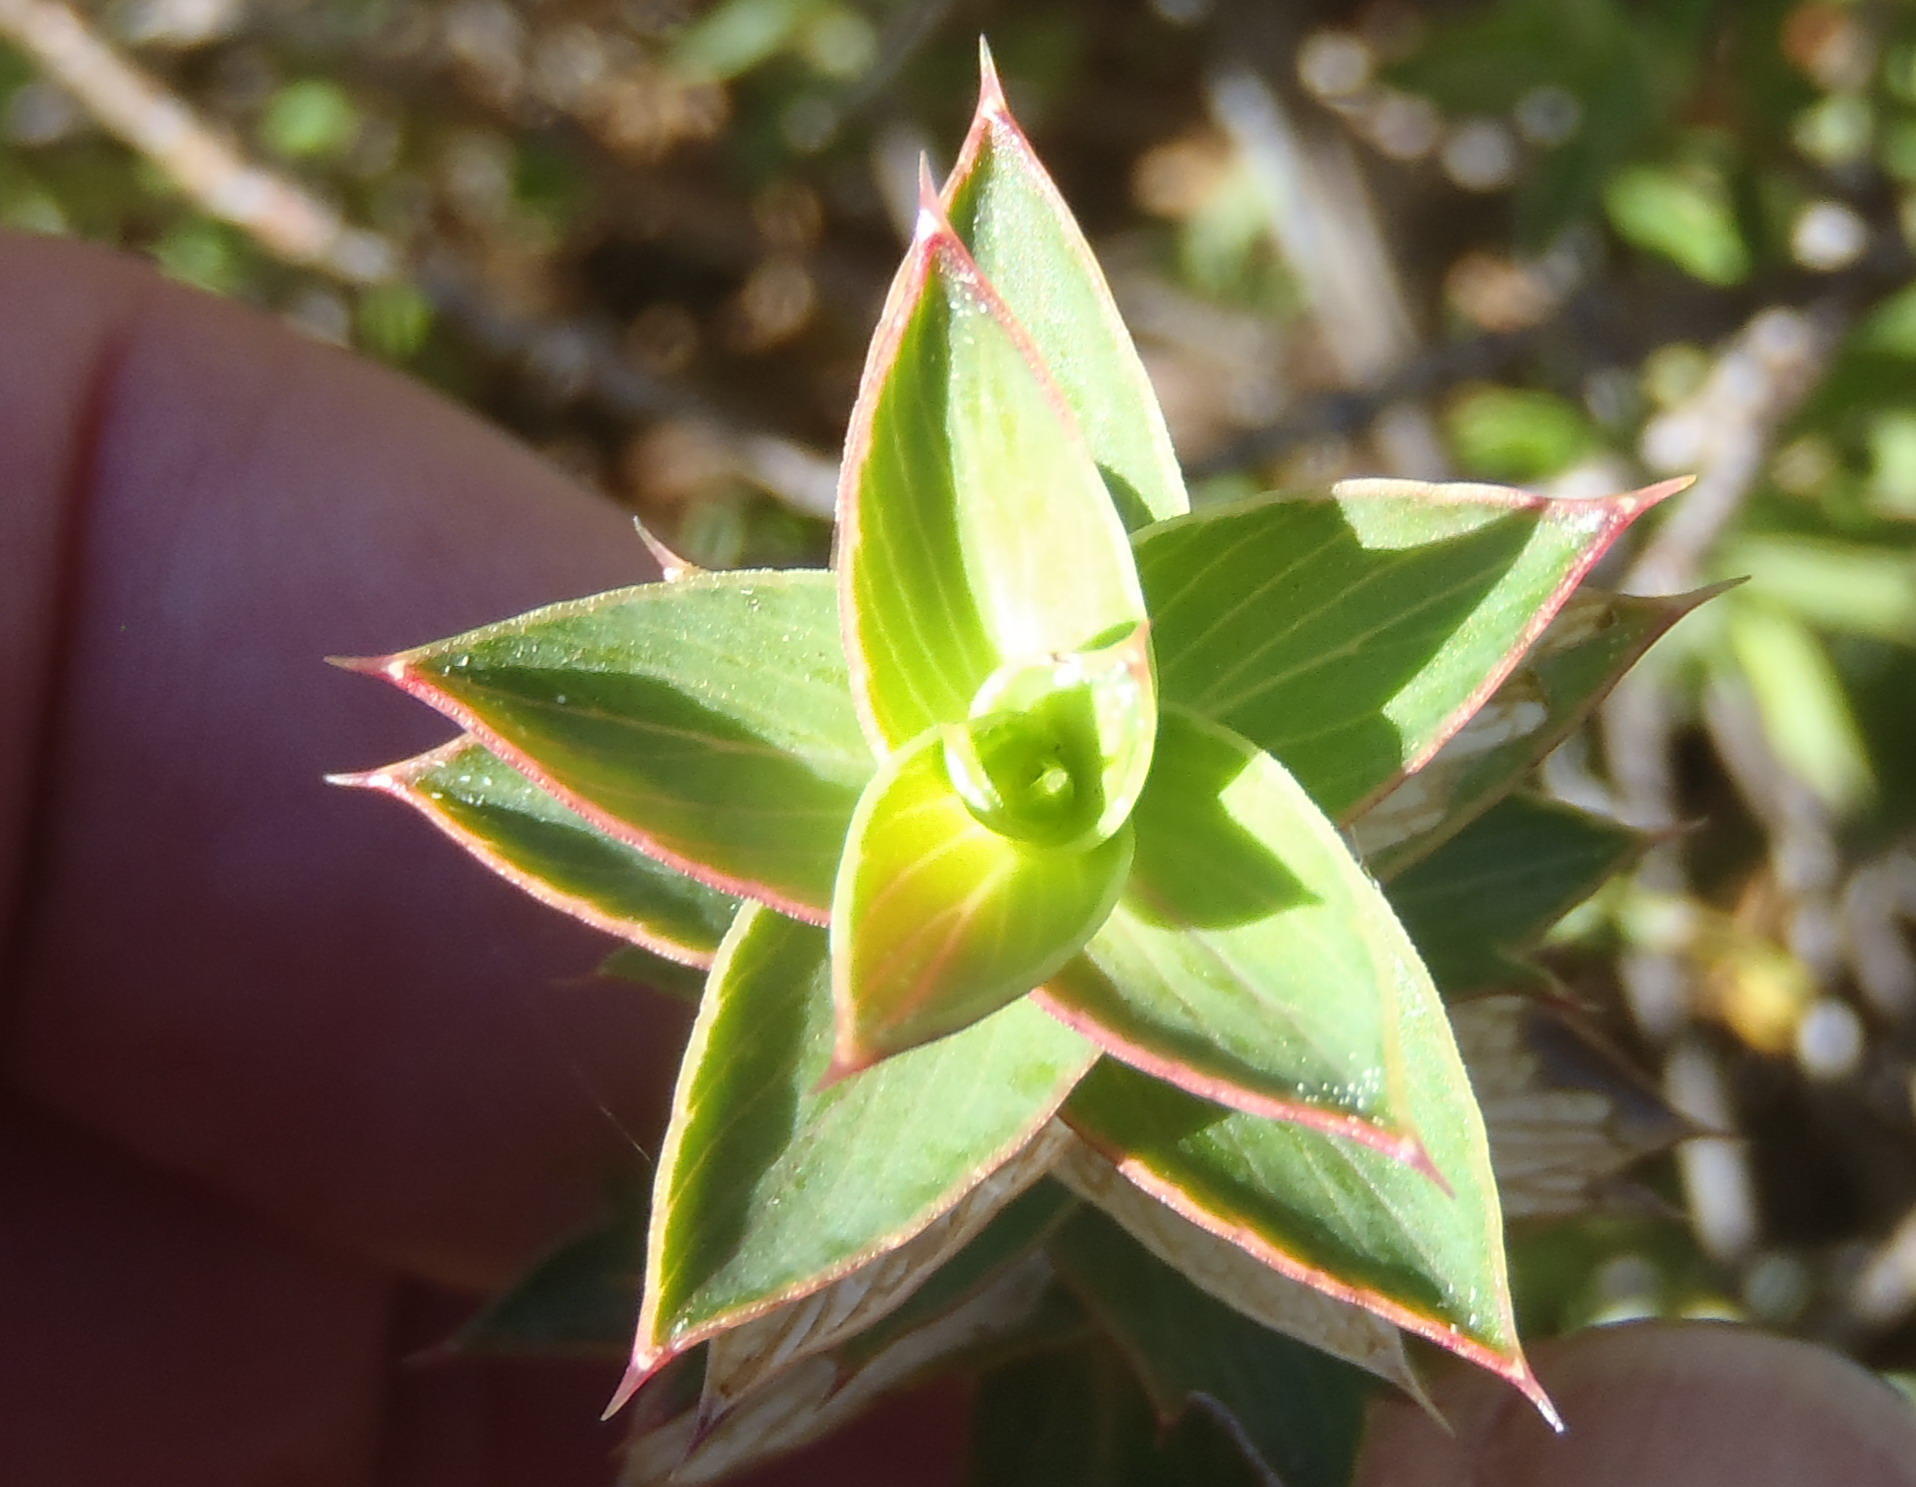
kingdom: Plantae
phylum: Tracheophyta
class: Magnoliopsida
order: Rosales
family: Rosaceae
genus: Cliffortia
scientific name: Cliffortia ilicifolia
